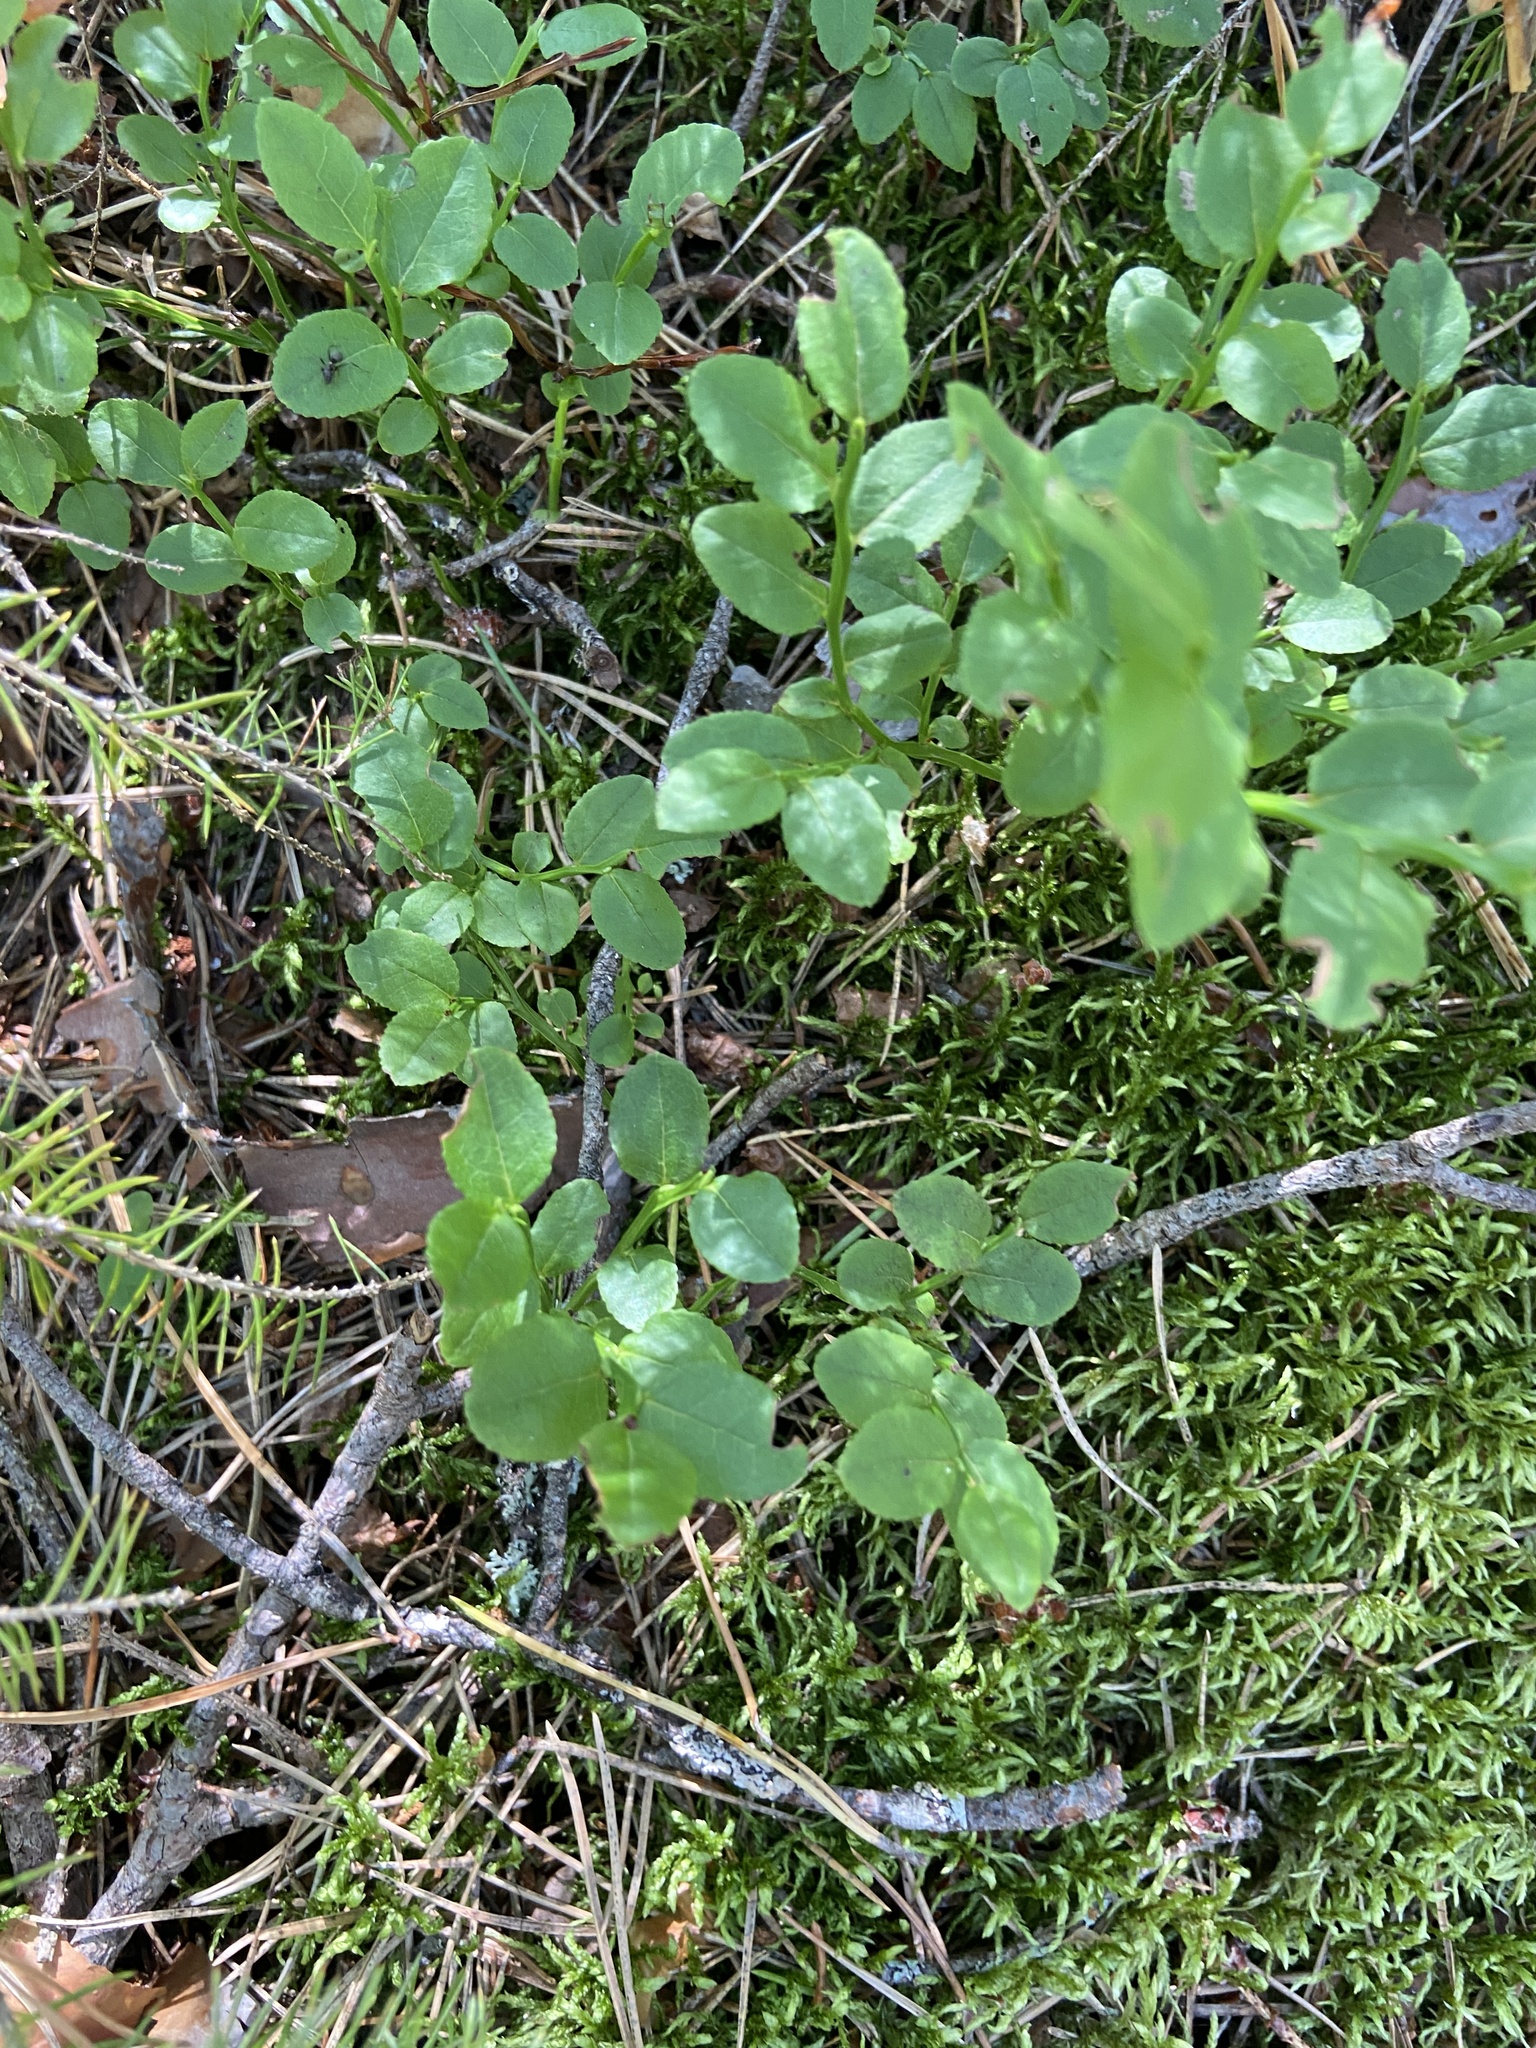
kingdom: Plantae
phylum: Tracheophyta
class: Magnoliopsida
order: Ericales
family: Ericaceae
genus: Vaccinium
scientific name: Vaccinium myrtillus
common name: Bilberry
